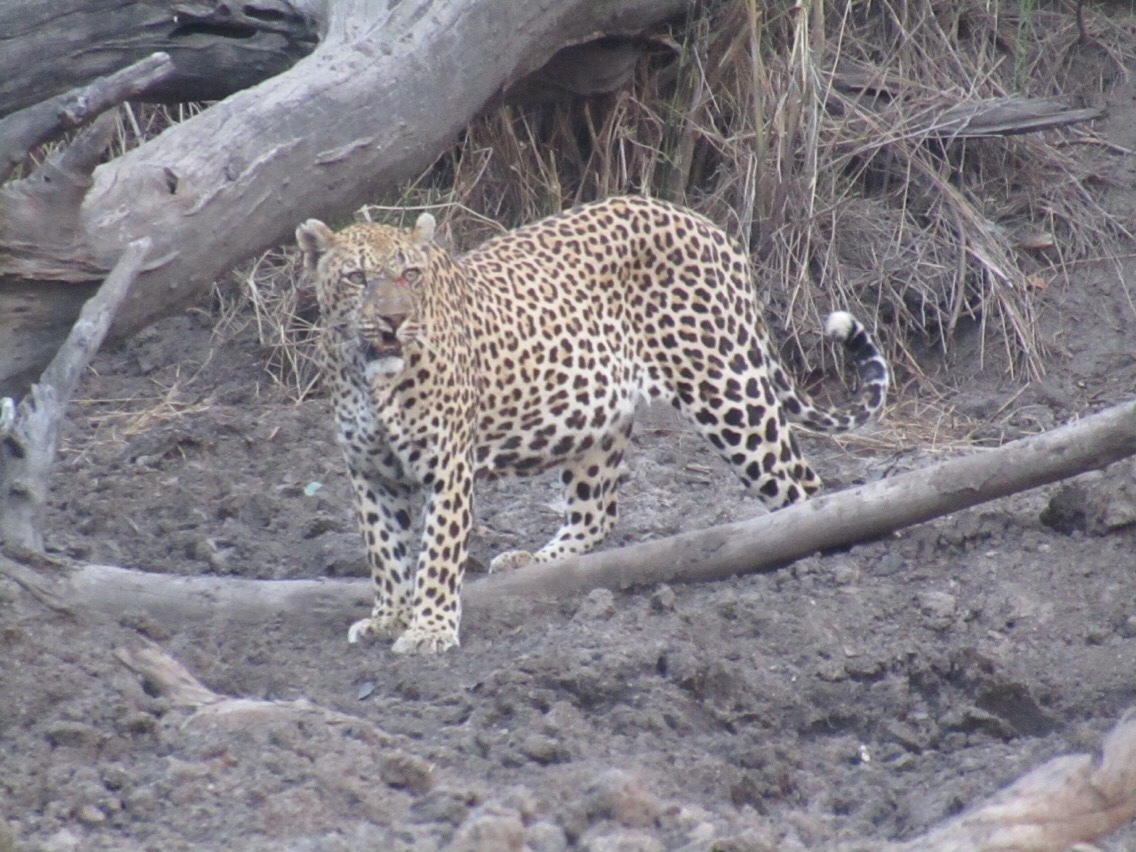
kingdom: Animalia
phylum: Chordata
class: Mammalia
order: Carnivora
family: Felidae
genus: Panthera
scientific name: Panthera pardus
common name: Leopard
